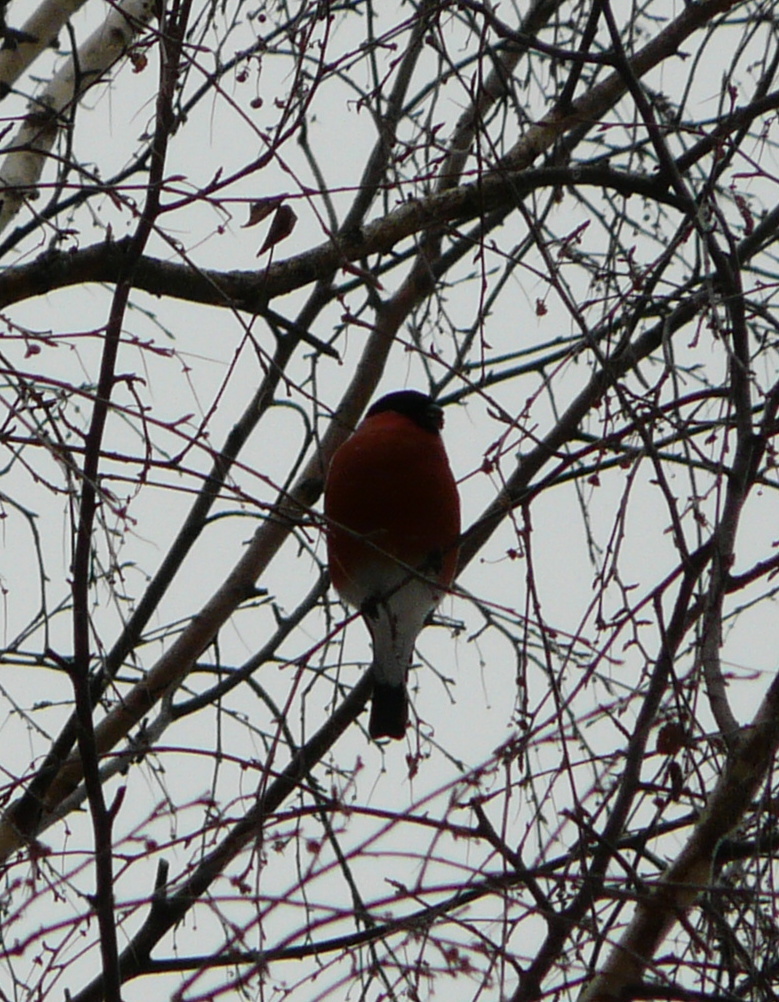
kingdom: Animalia
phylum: Chordata
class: Aves
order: Passeriformes
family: Fringillidae
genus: Pyrrhula
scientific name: Pyrrhula pyrrhula
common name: Eurasian bullfinch
